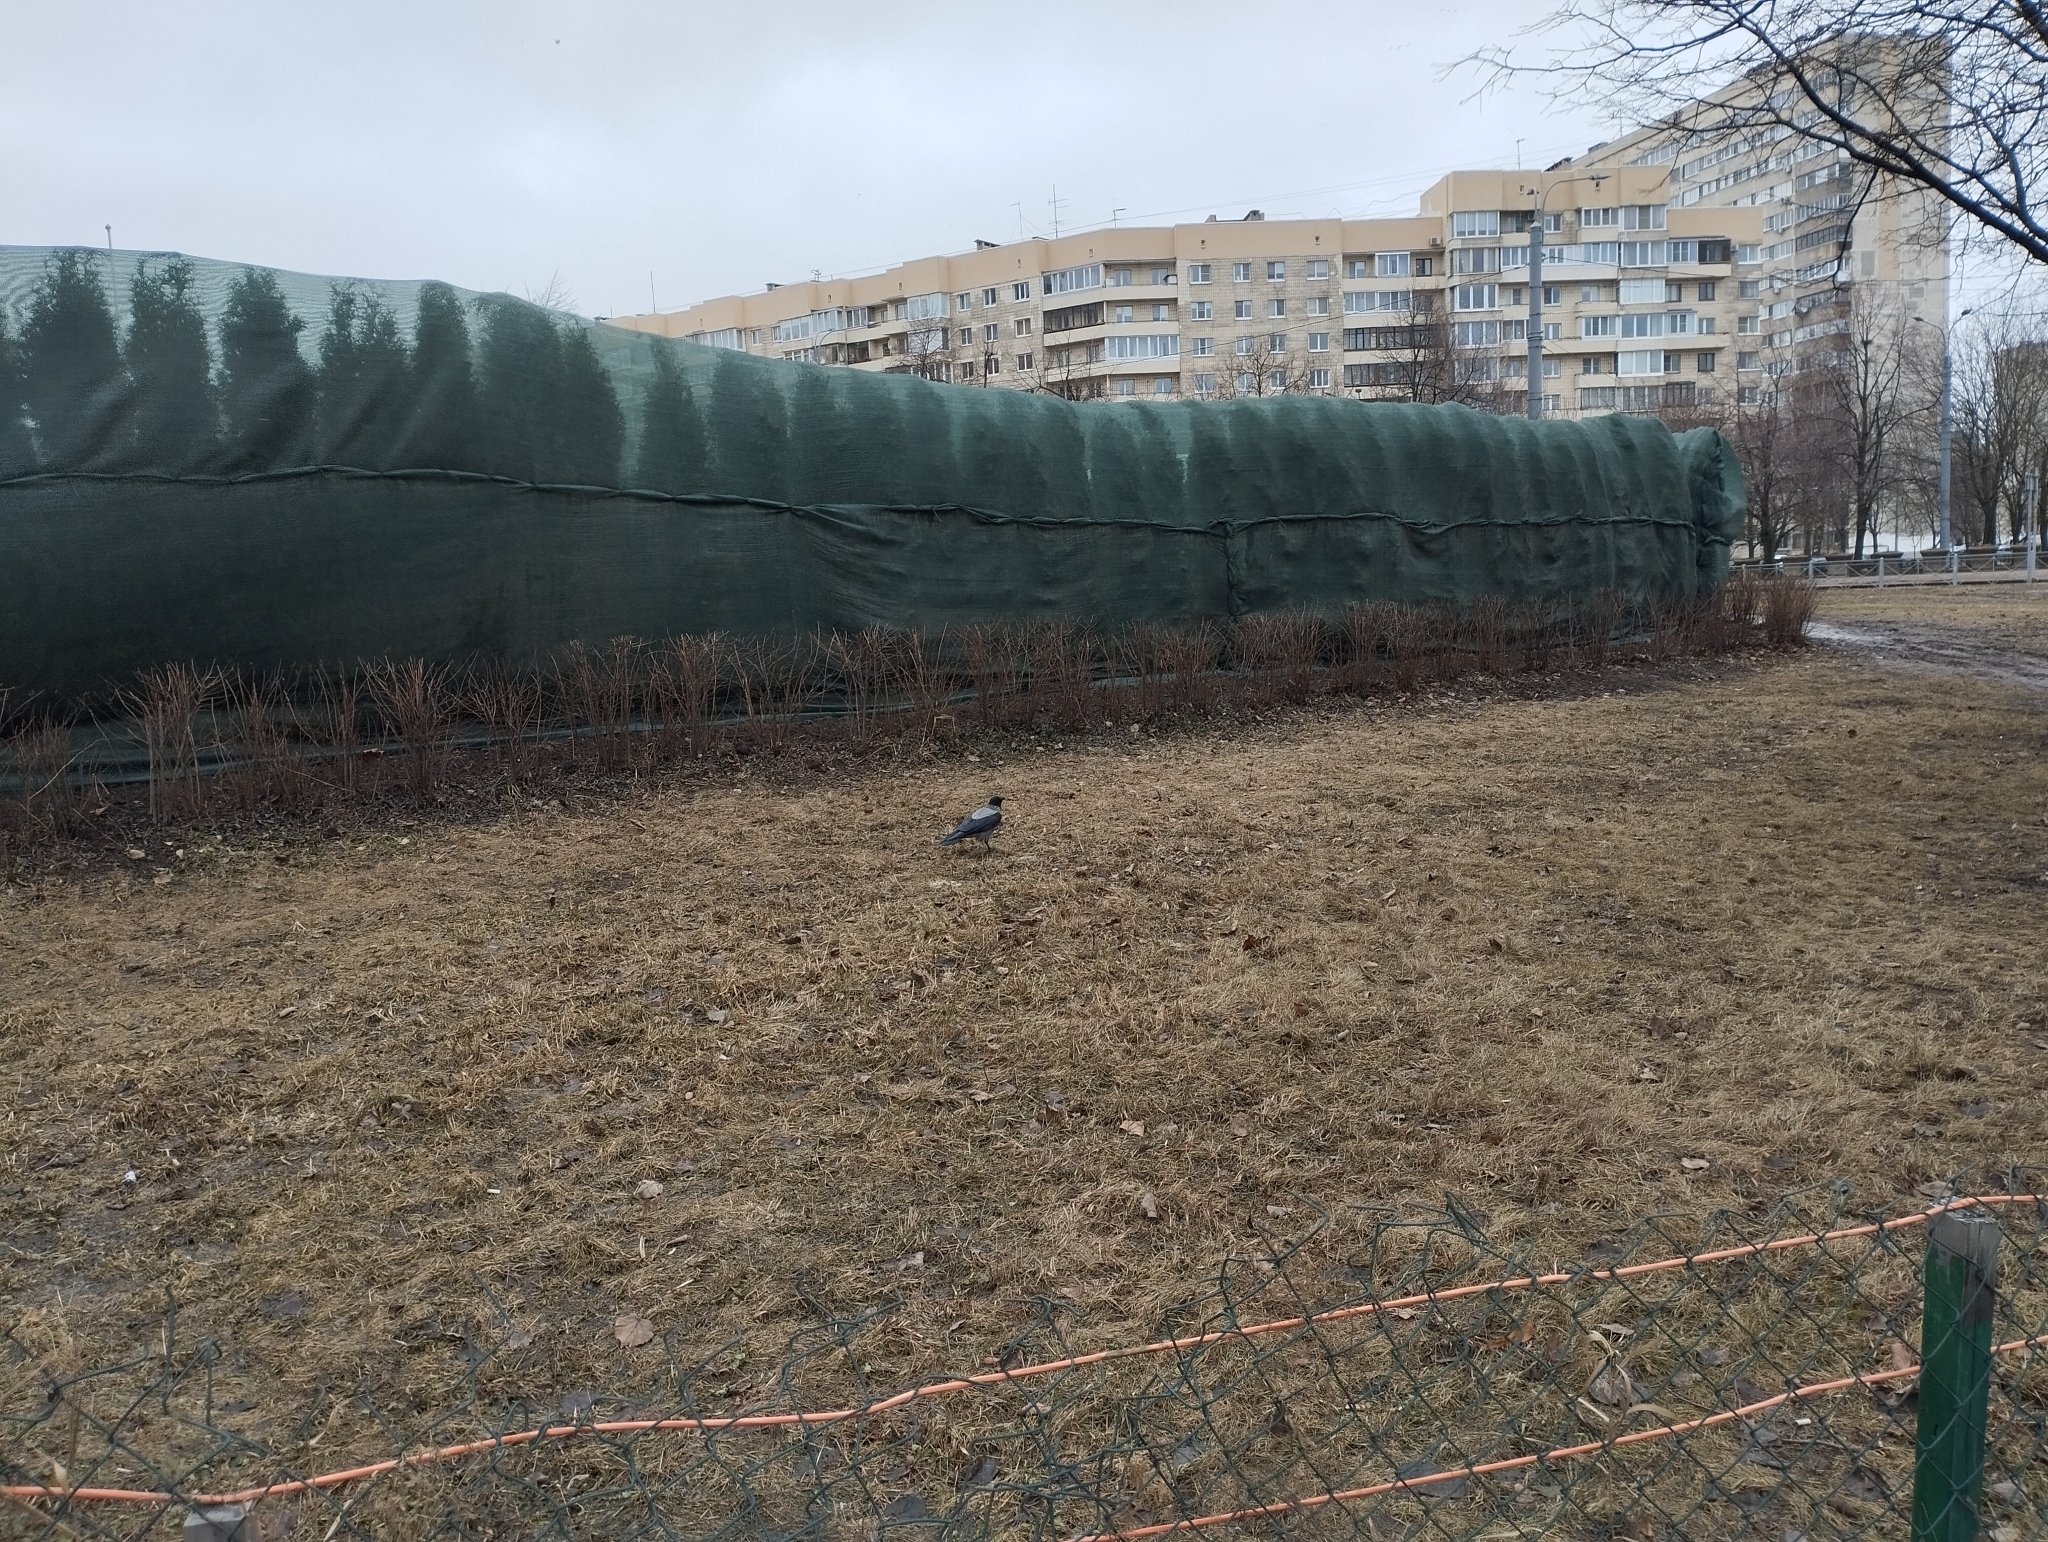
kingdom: Animalia
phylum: Chordata
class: Aves
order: Passeriformes
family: Corvidae
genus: Corvus
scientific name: Corvus cornix
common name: Hooded crow
